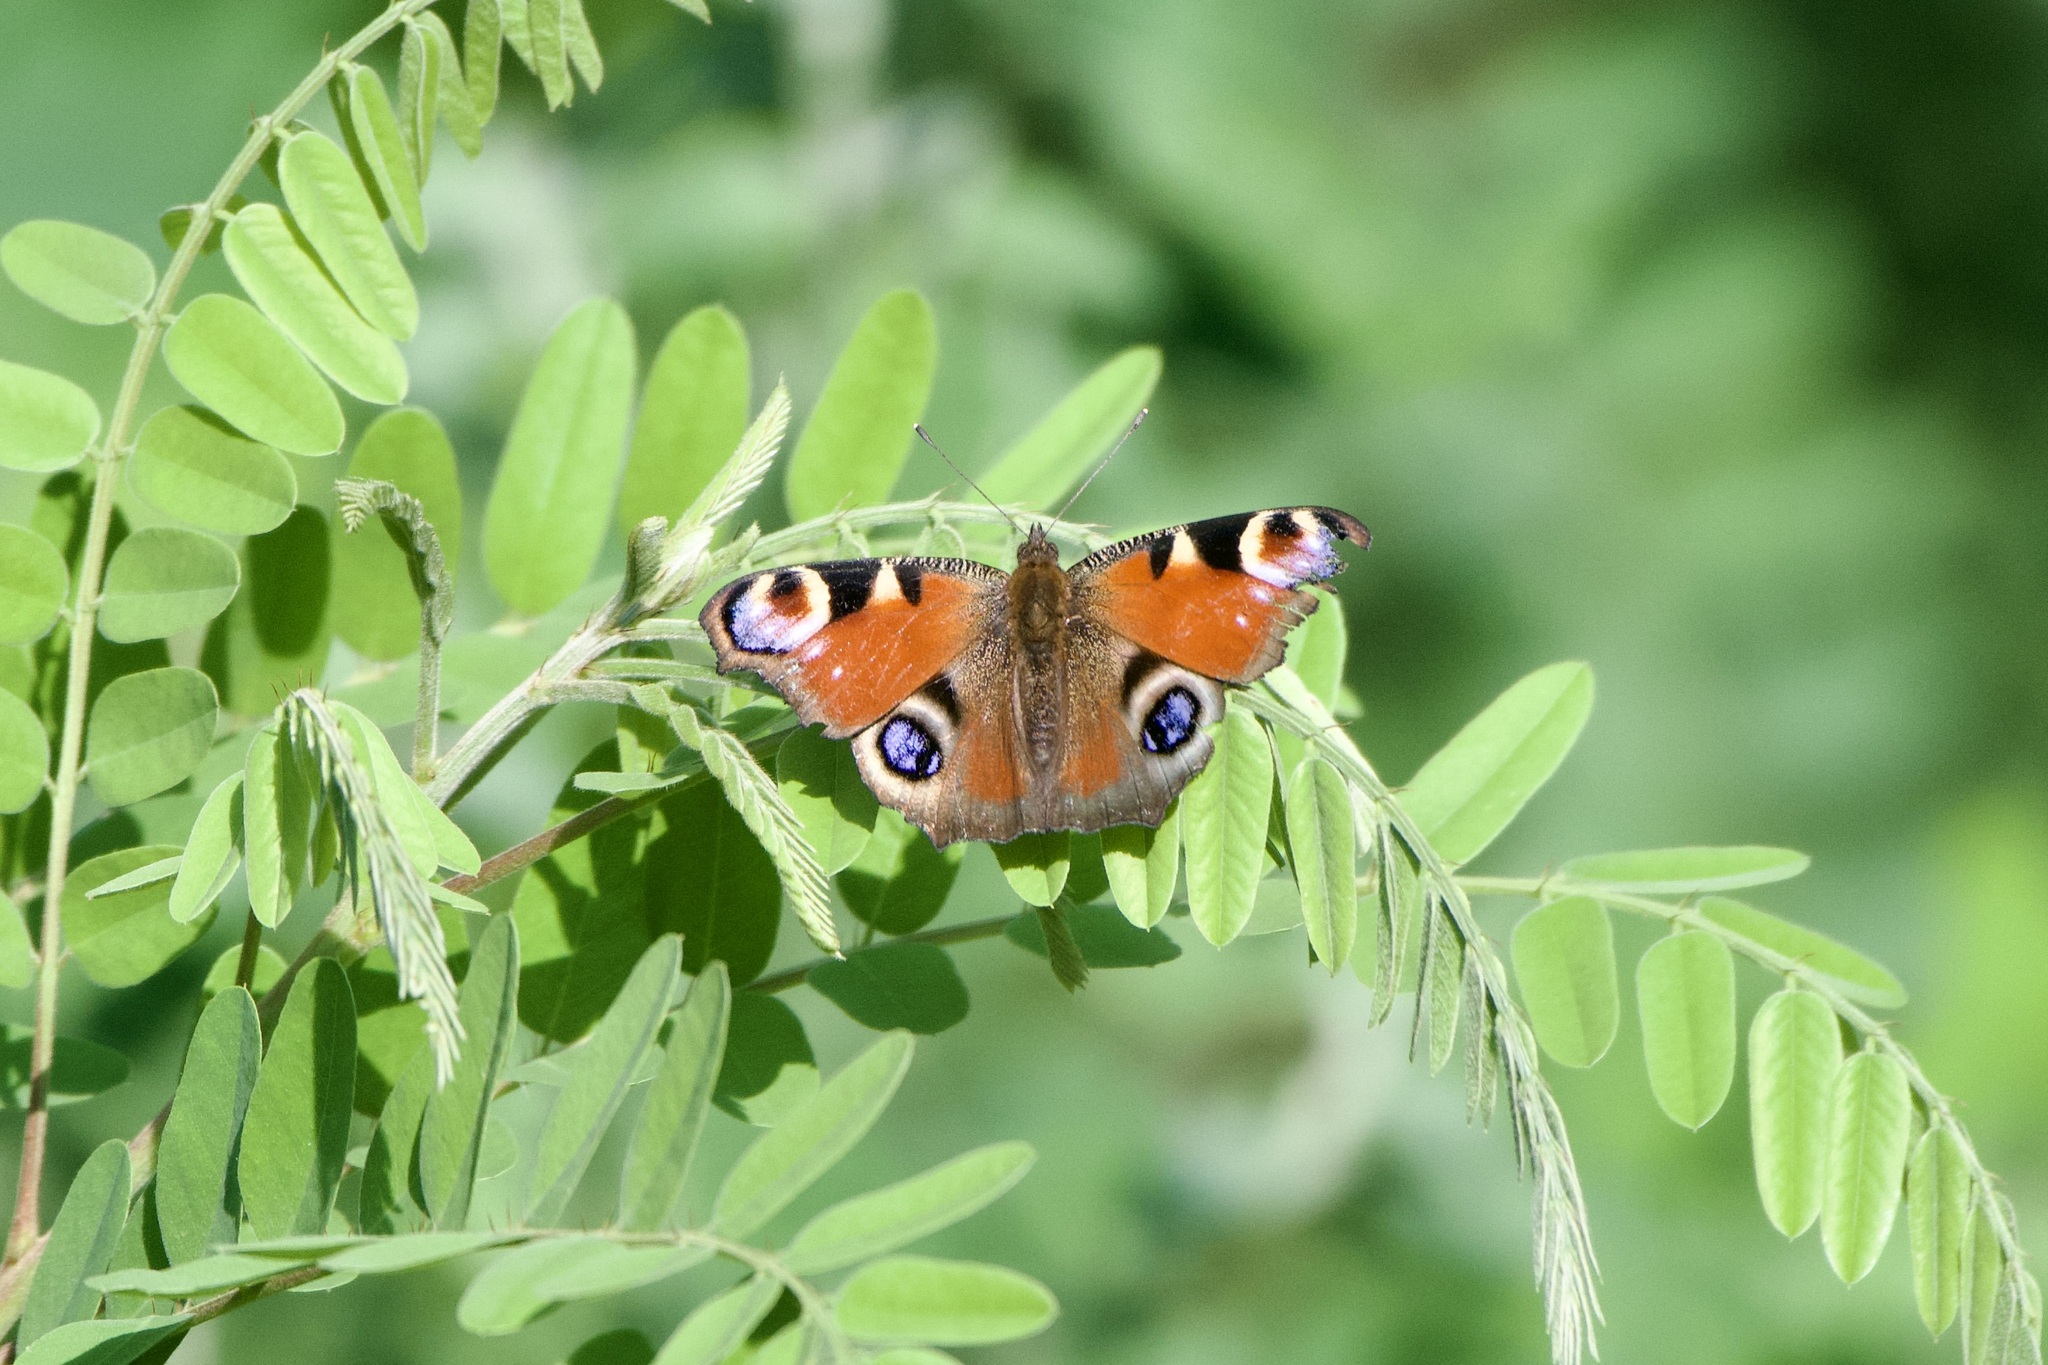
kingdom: Animalia
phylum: Arthropoda
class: Insecta
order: Lepidoptera
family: Nymphalidae
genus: Aglais
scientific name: Aglais io
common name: Peacock
